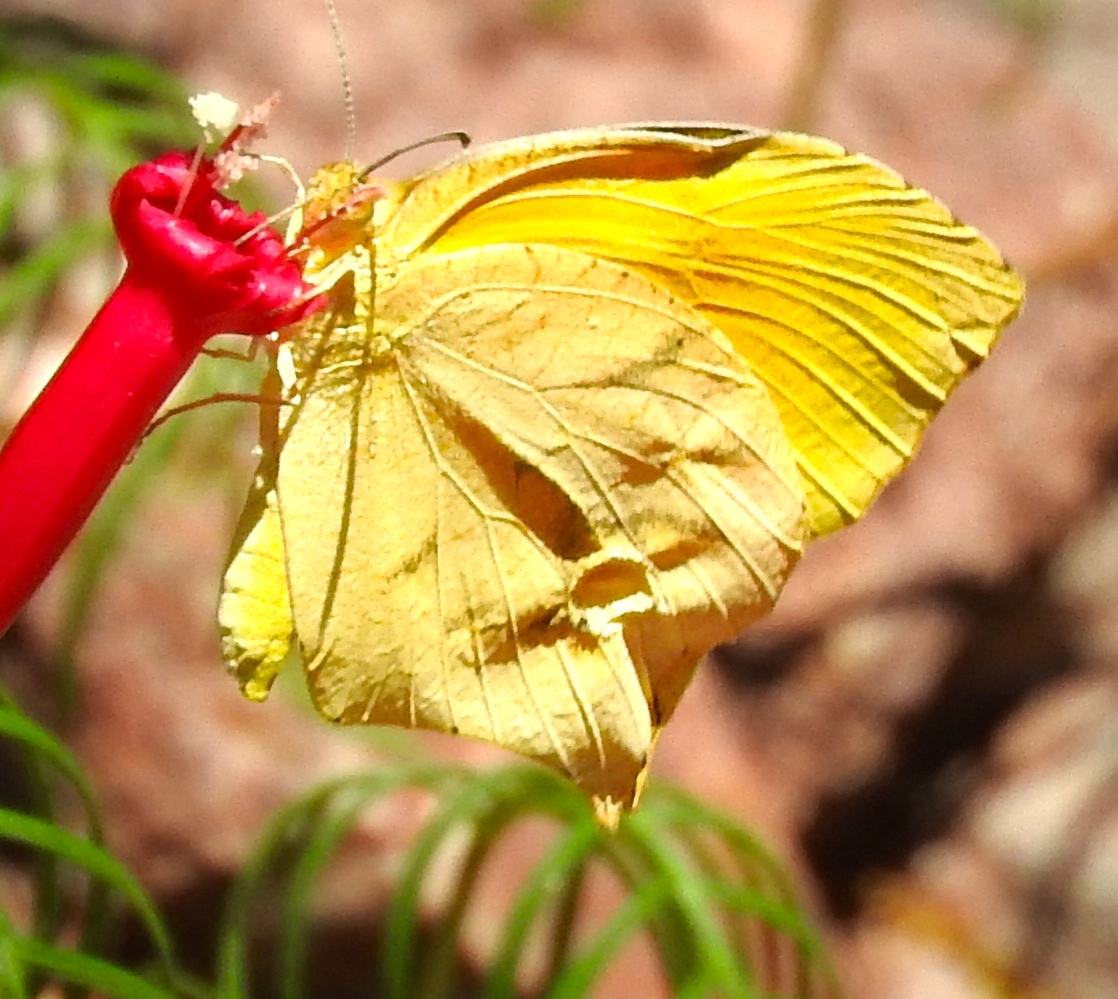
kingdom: Animalia
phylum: Arthropoda
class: Insecta
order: Lepidoptera
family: Pieridae
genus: Pyrisitia
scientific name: Pyrisitia proterpia
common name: Tailed orange
